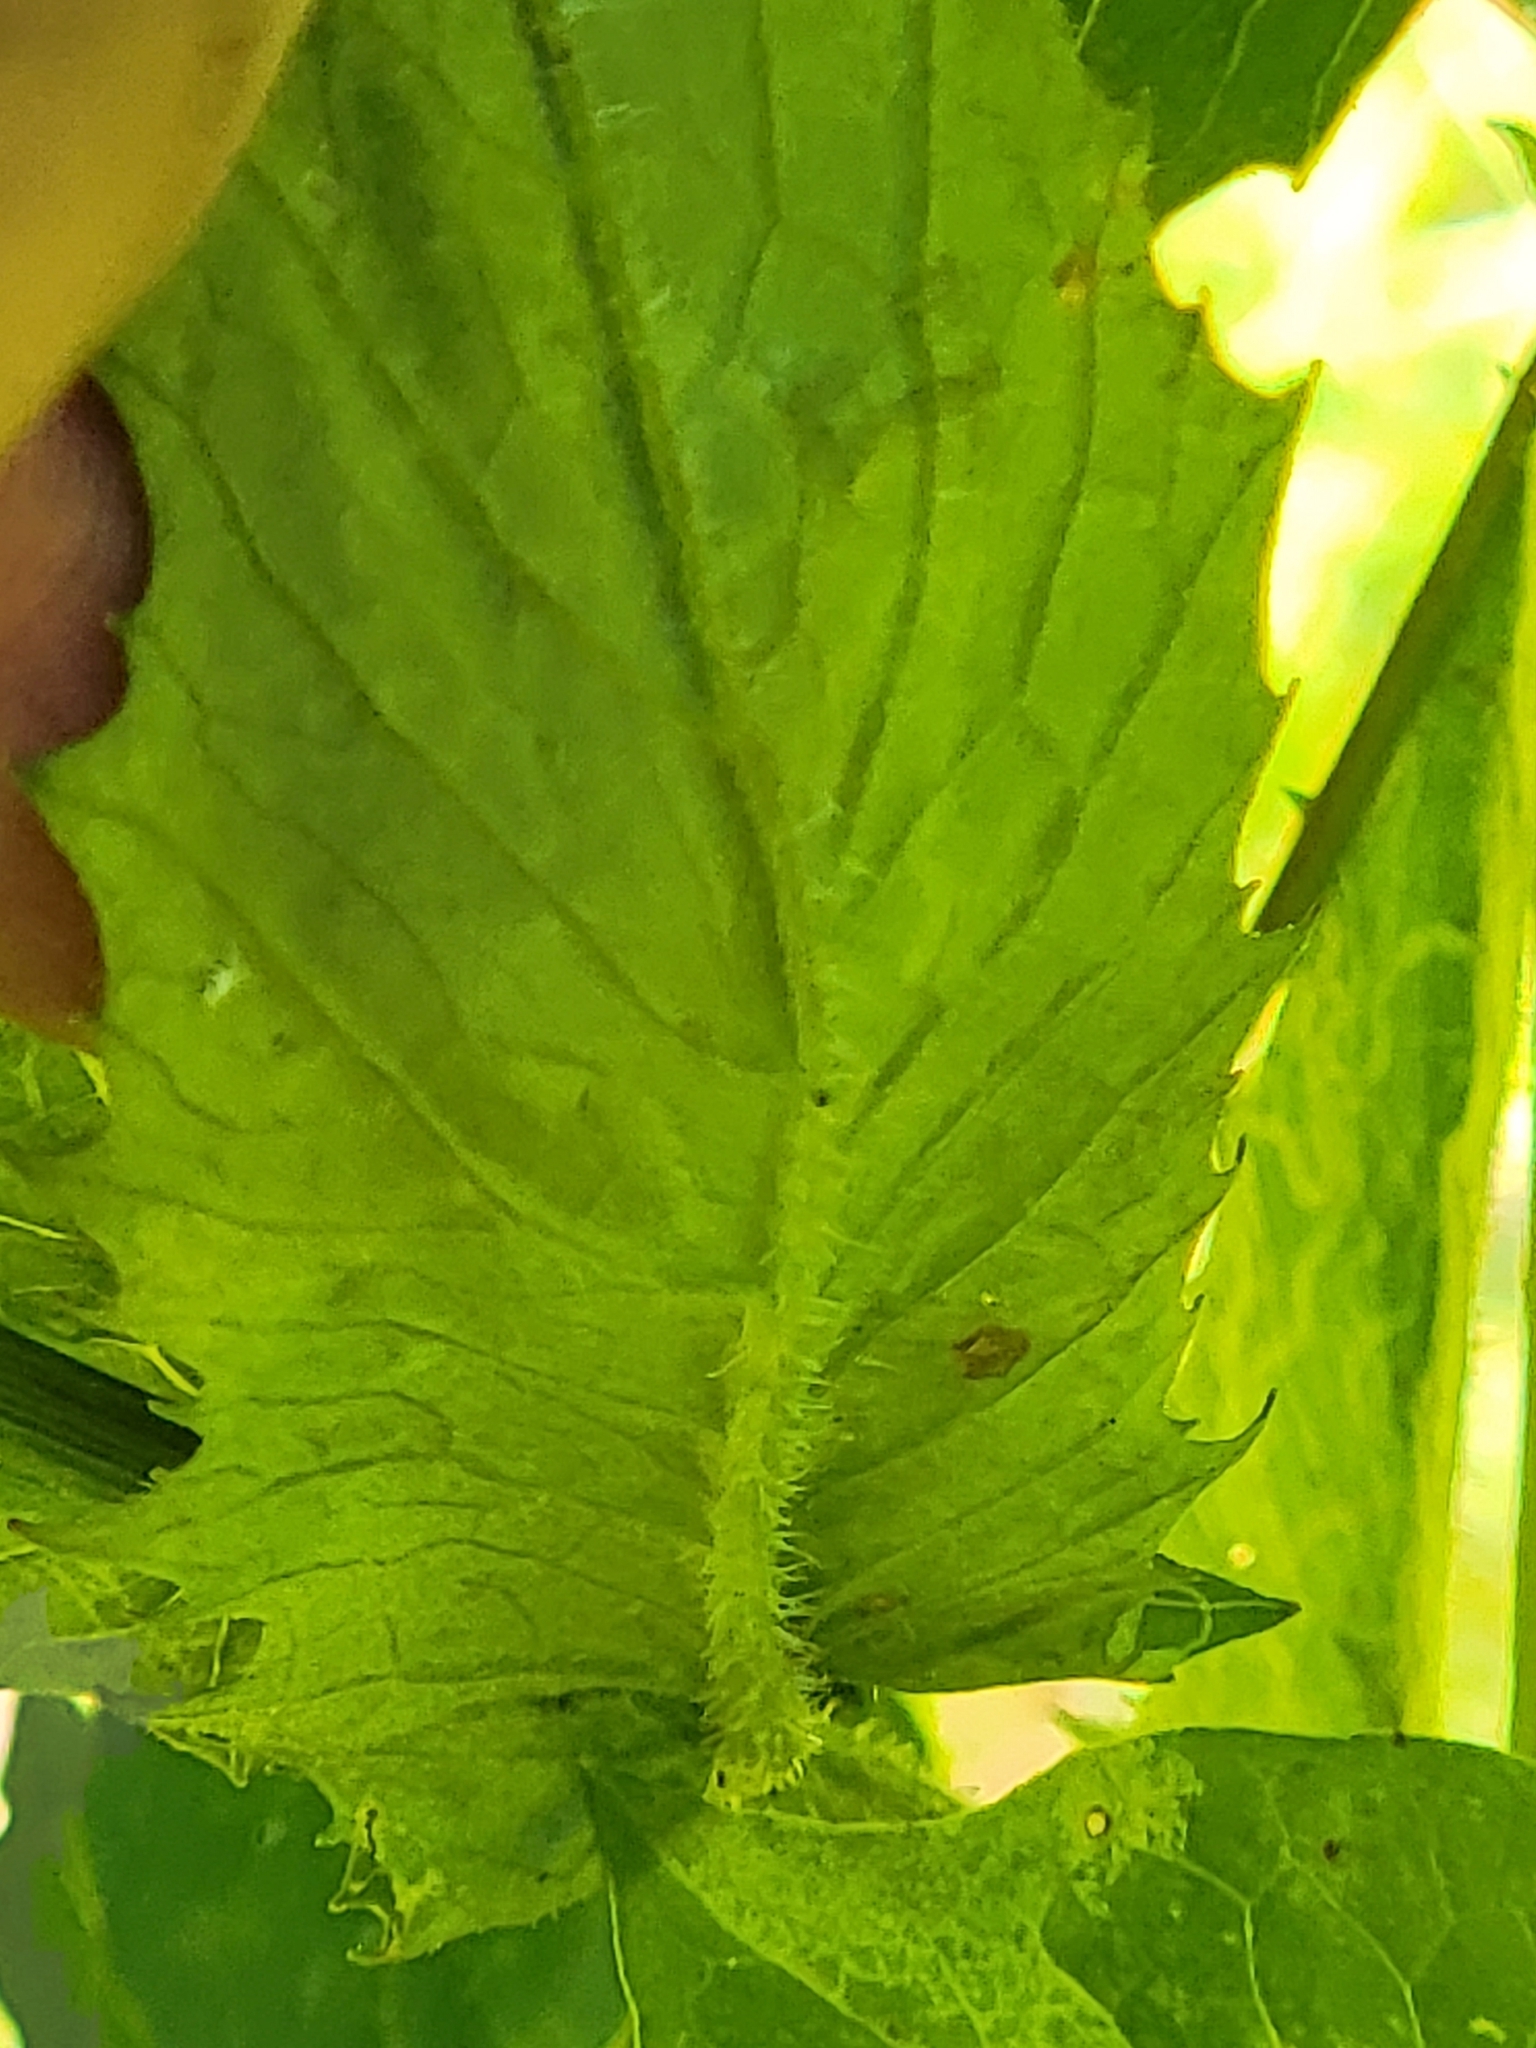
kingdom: Animalia
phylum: Arthropoda
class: Insecta
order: Lepidoptera
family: Gracillariidae
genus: Phyllocnistis
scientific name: Phyllocnistis insignis
